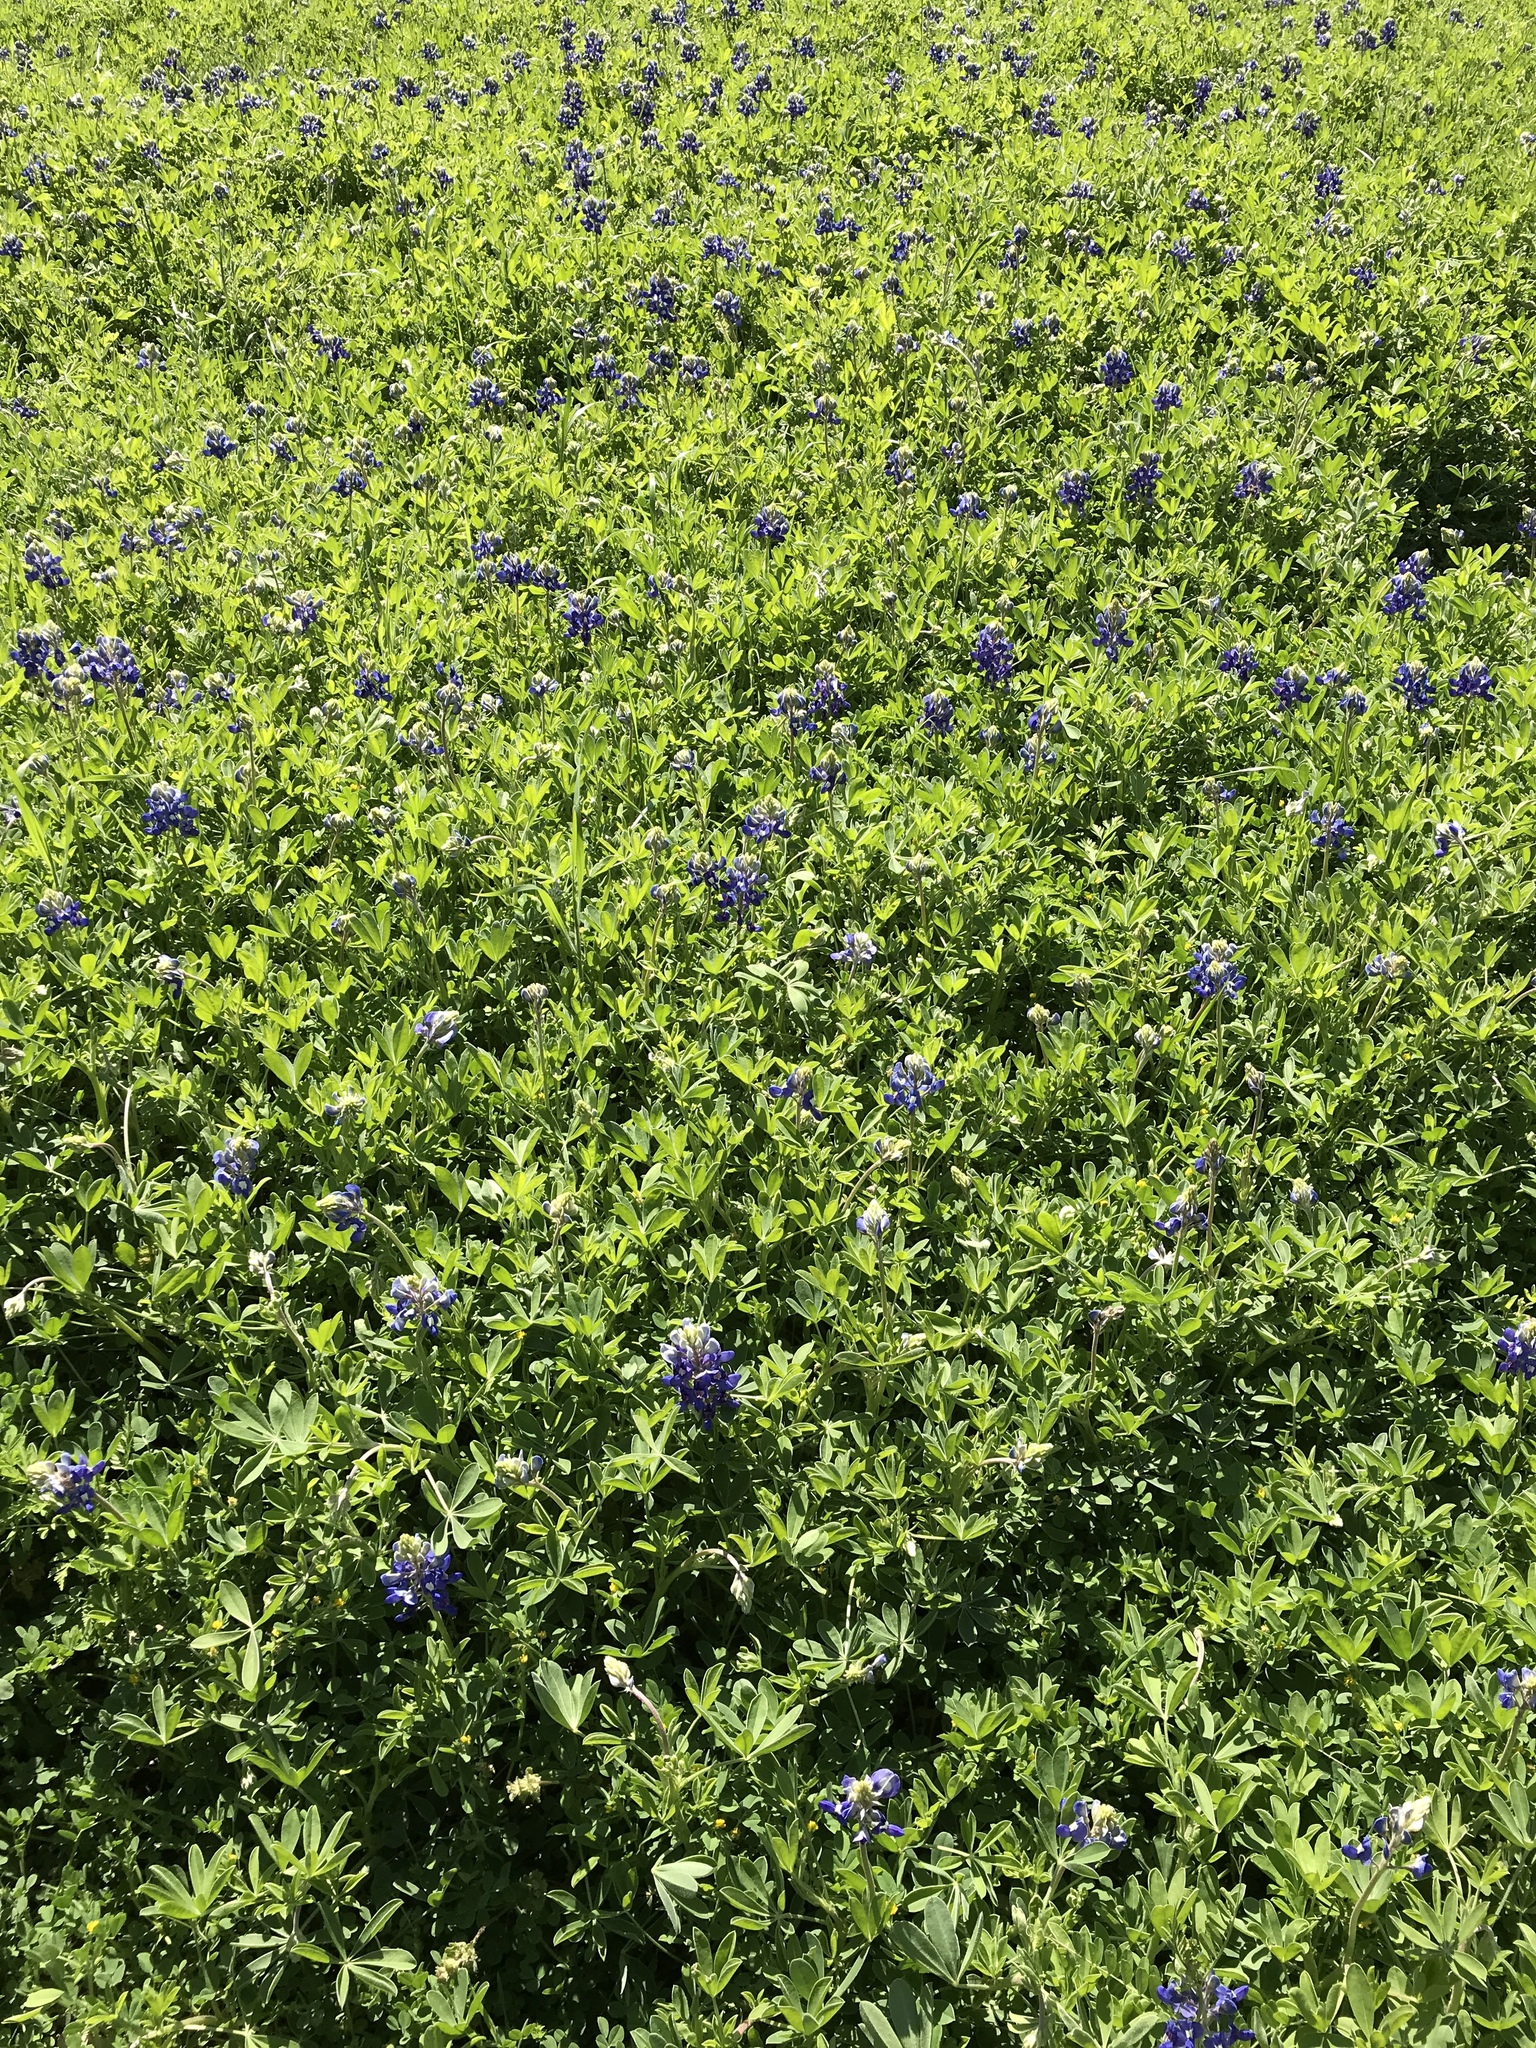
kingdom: Plantae
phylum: Tracheophyta
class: Magnoliopsida
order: Fabales
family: Fabaceae
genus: Lupinus
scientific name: Lupinus texensis
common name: Texas bluebonnet
